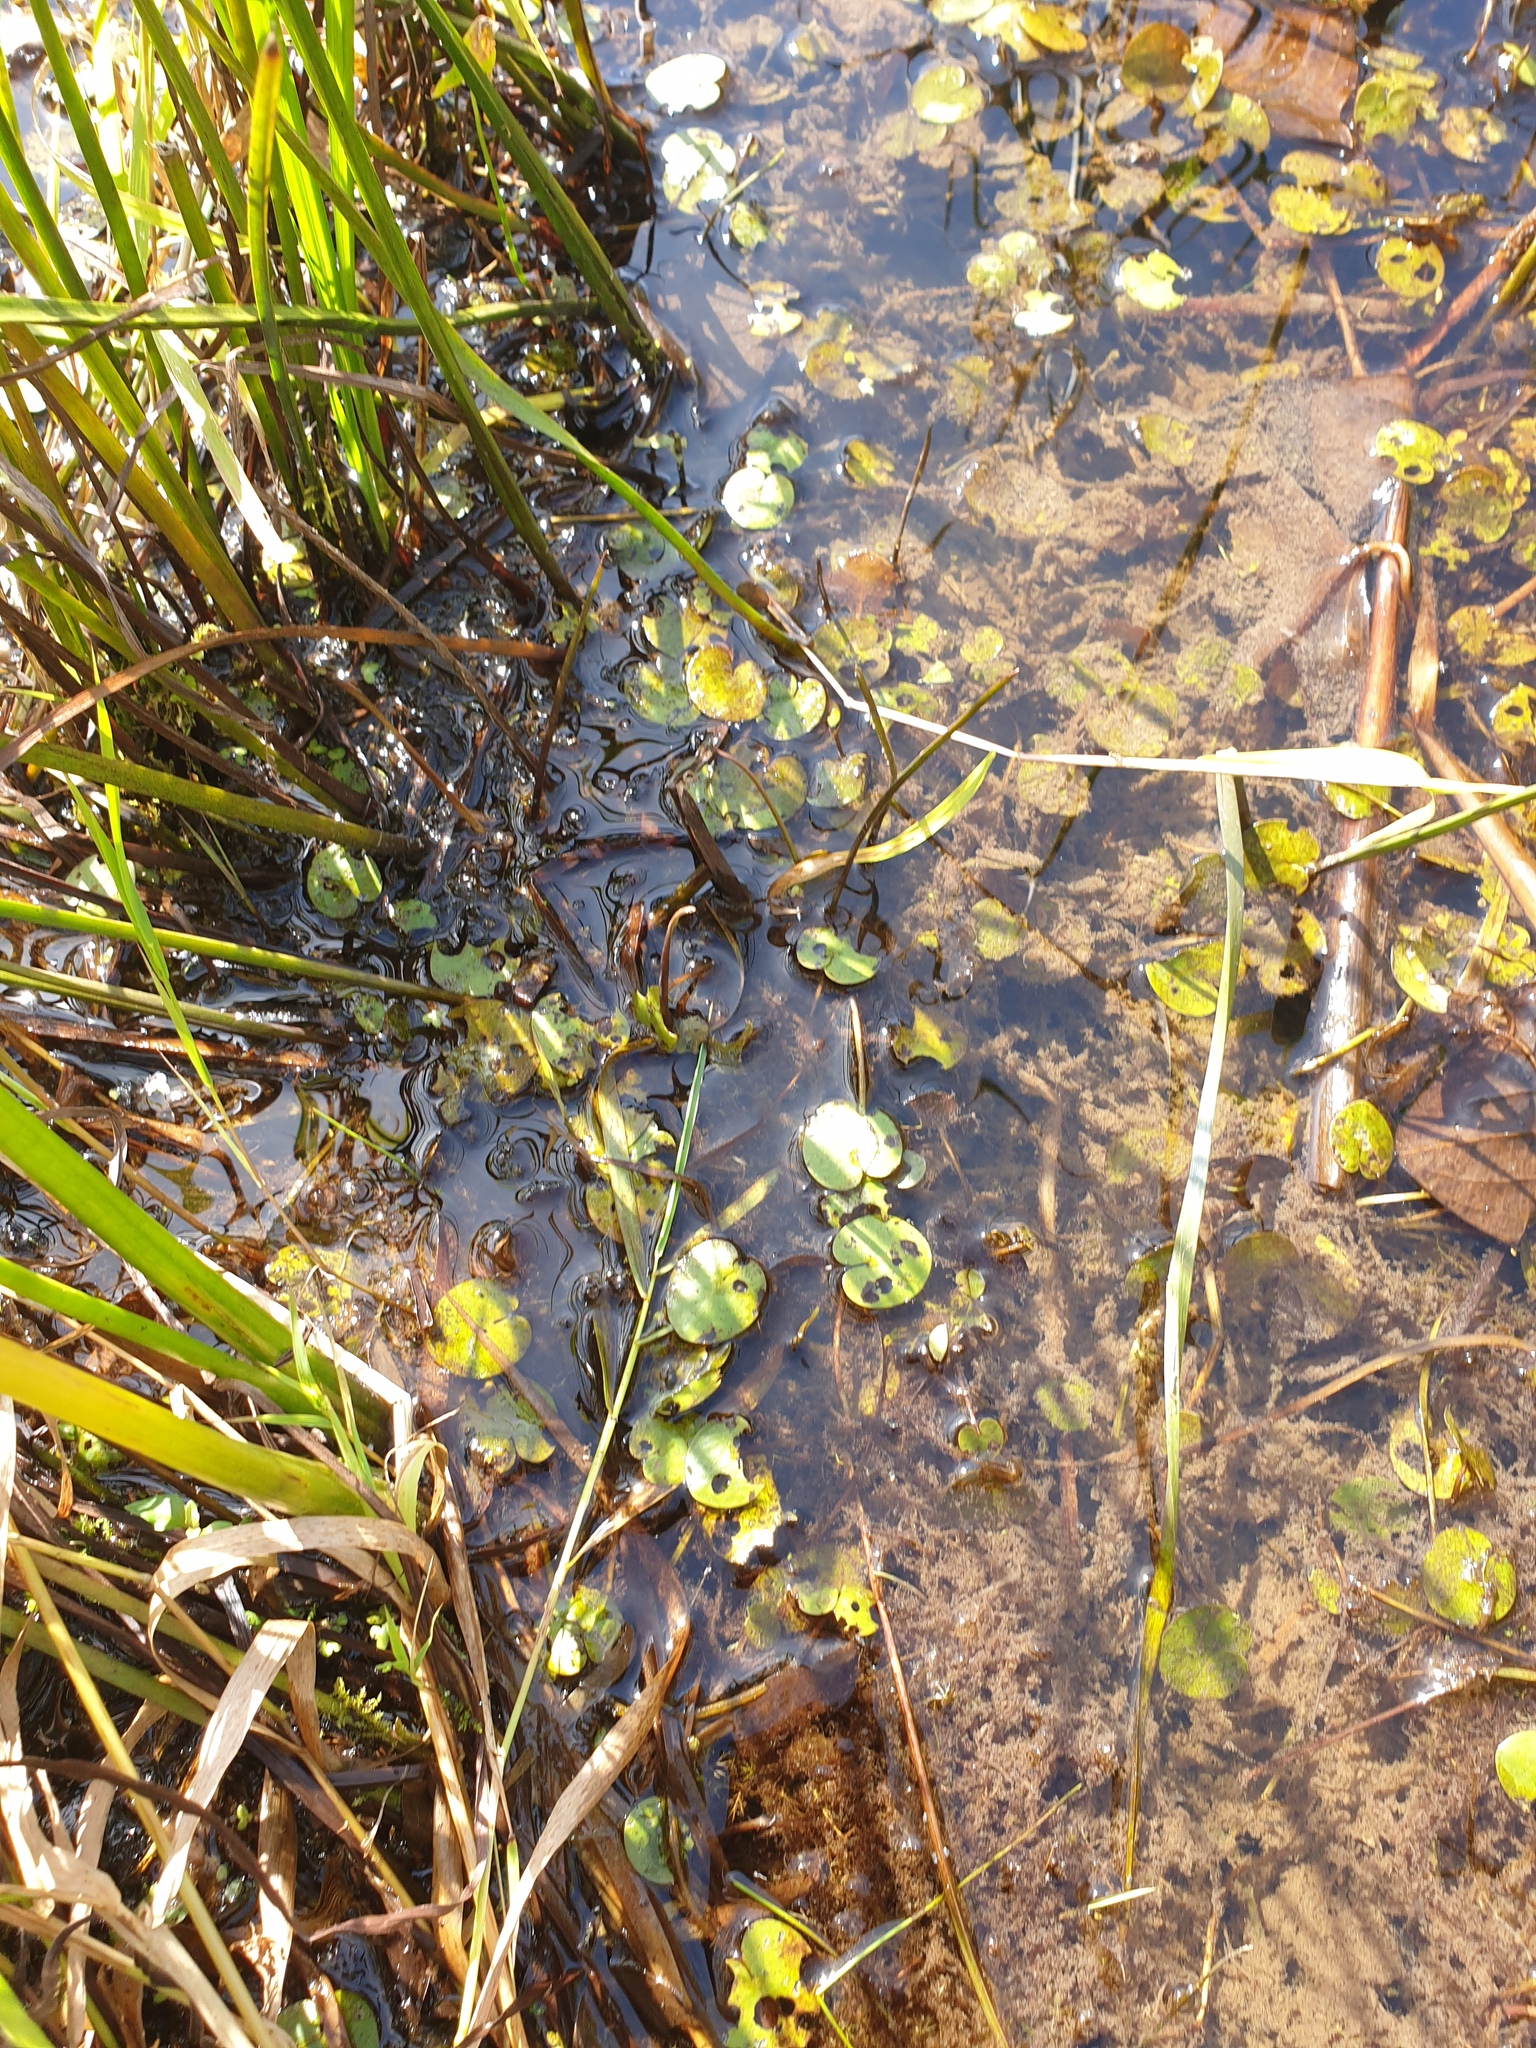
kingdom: Plantae
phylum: Tracheophyta
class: Liliopsida
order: Alismatales
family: Hydrocharitaceae
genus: Hydrocharis
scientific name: Hydrocharis morsus-ranae
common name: Frogbit
